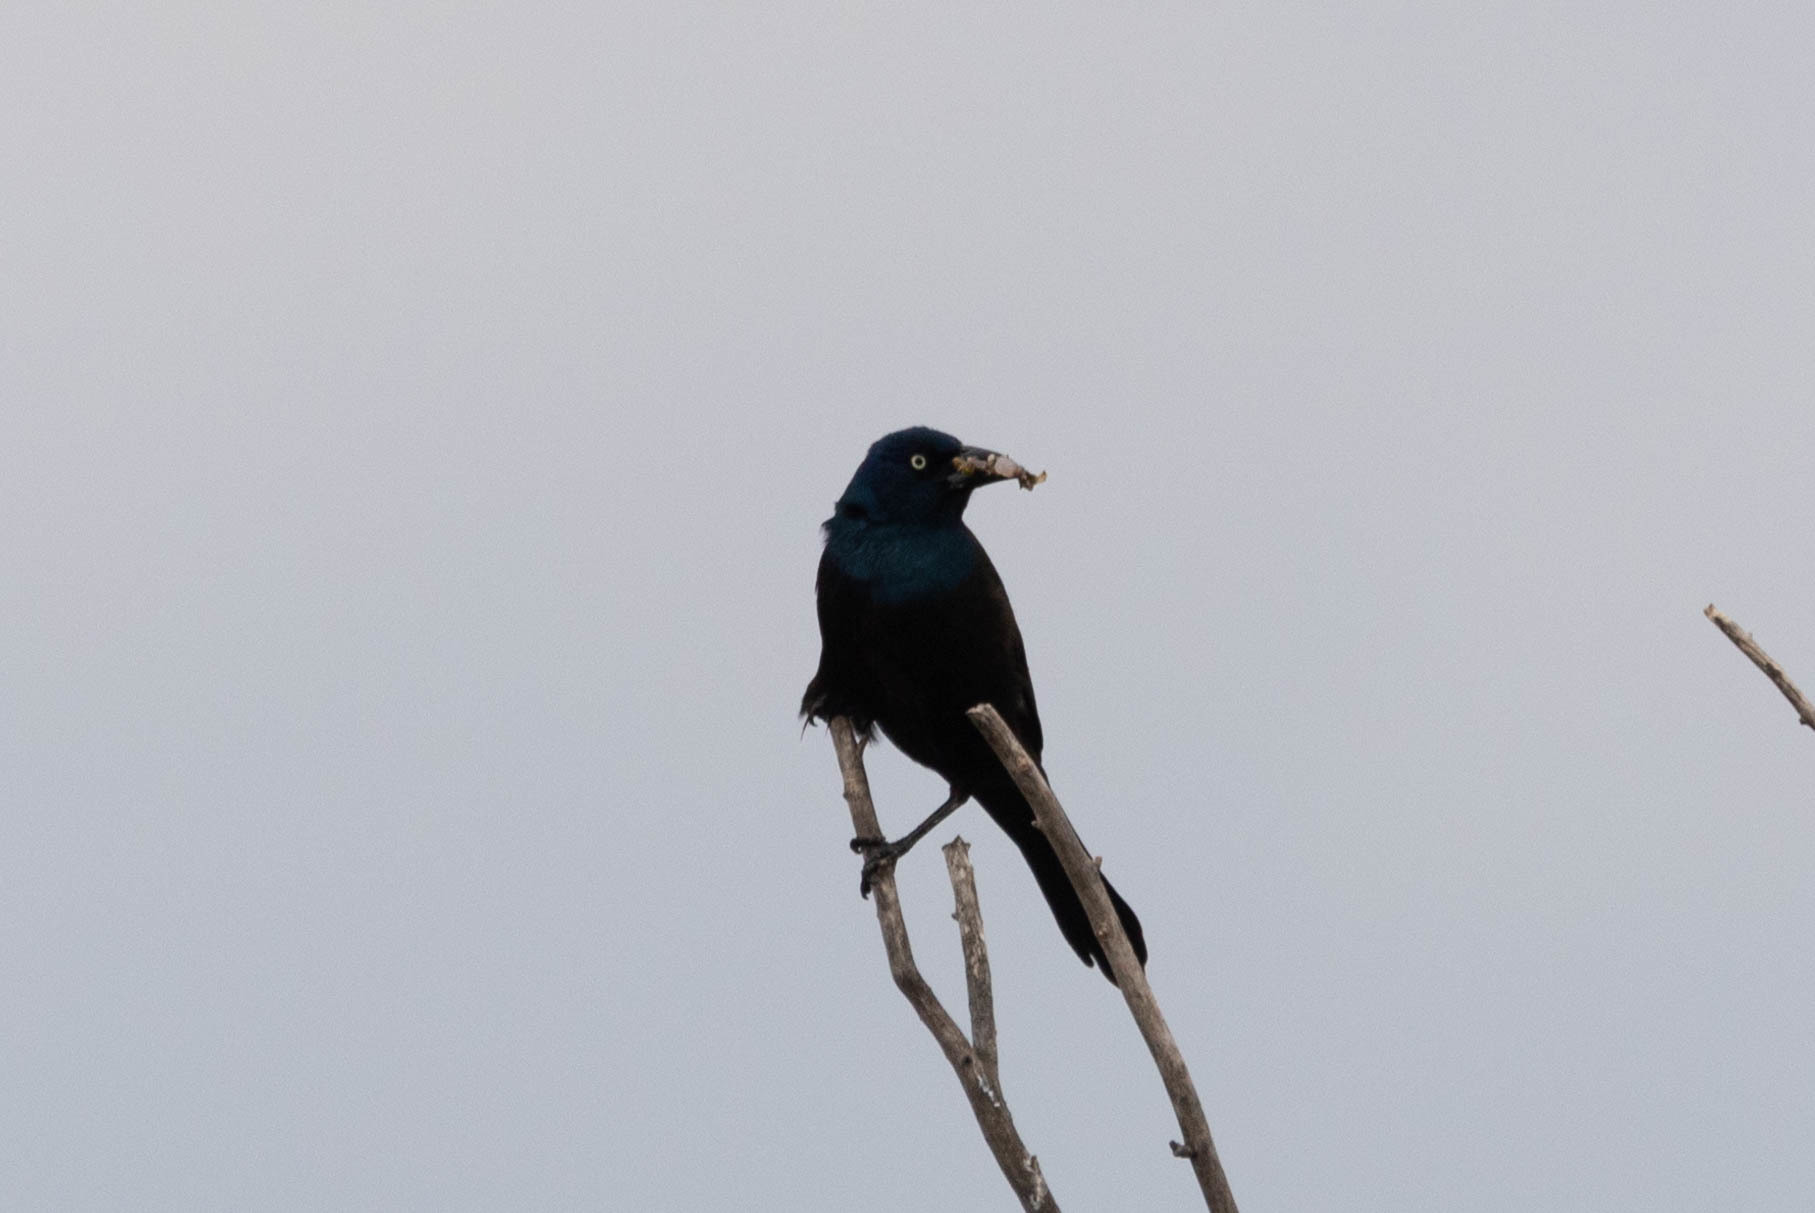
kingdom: Animalia
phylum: Chordata
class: Aves
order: Passeriformes
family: Icteridae
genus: Quiscalus
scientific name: Quiscalus quiscula
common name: Common grackle
